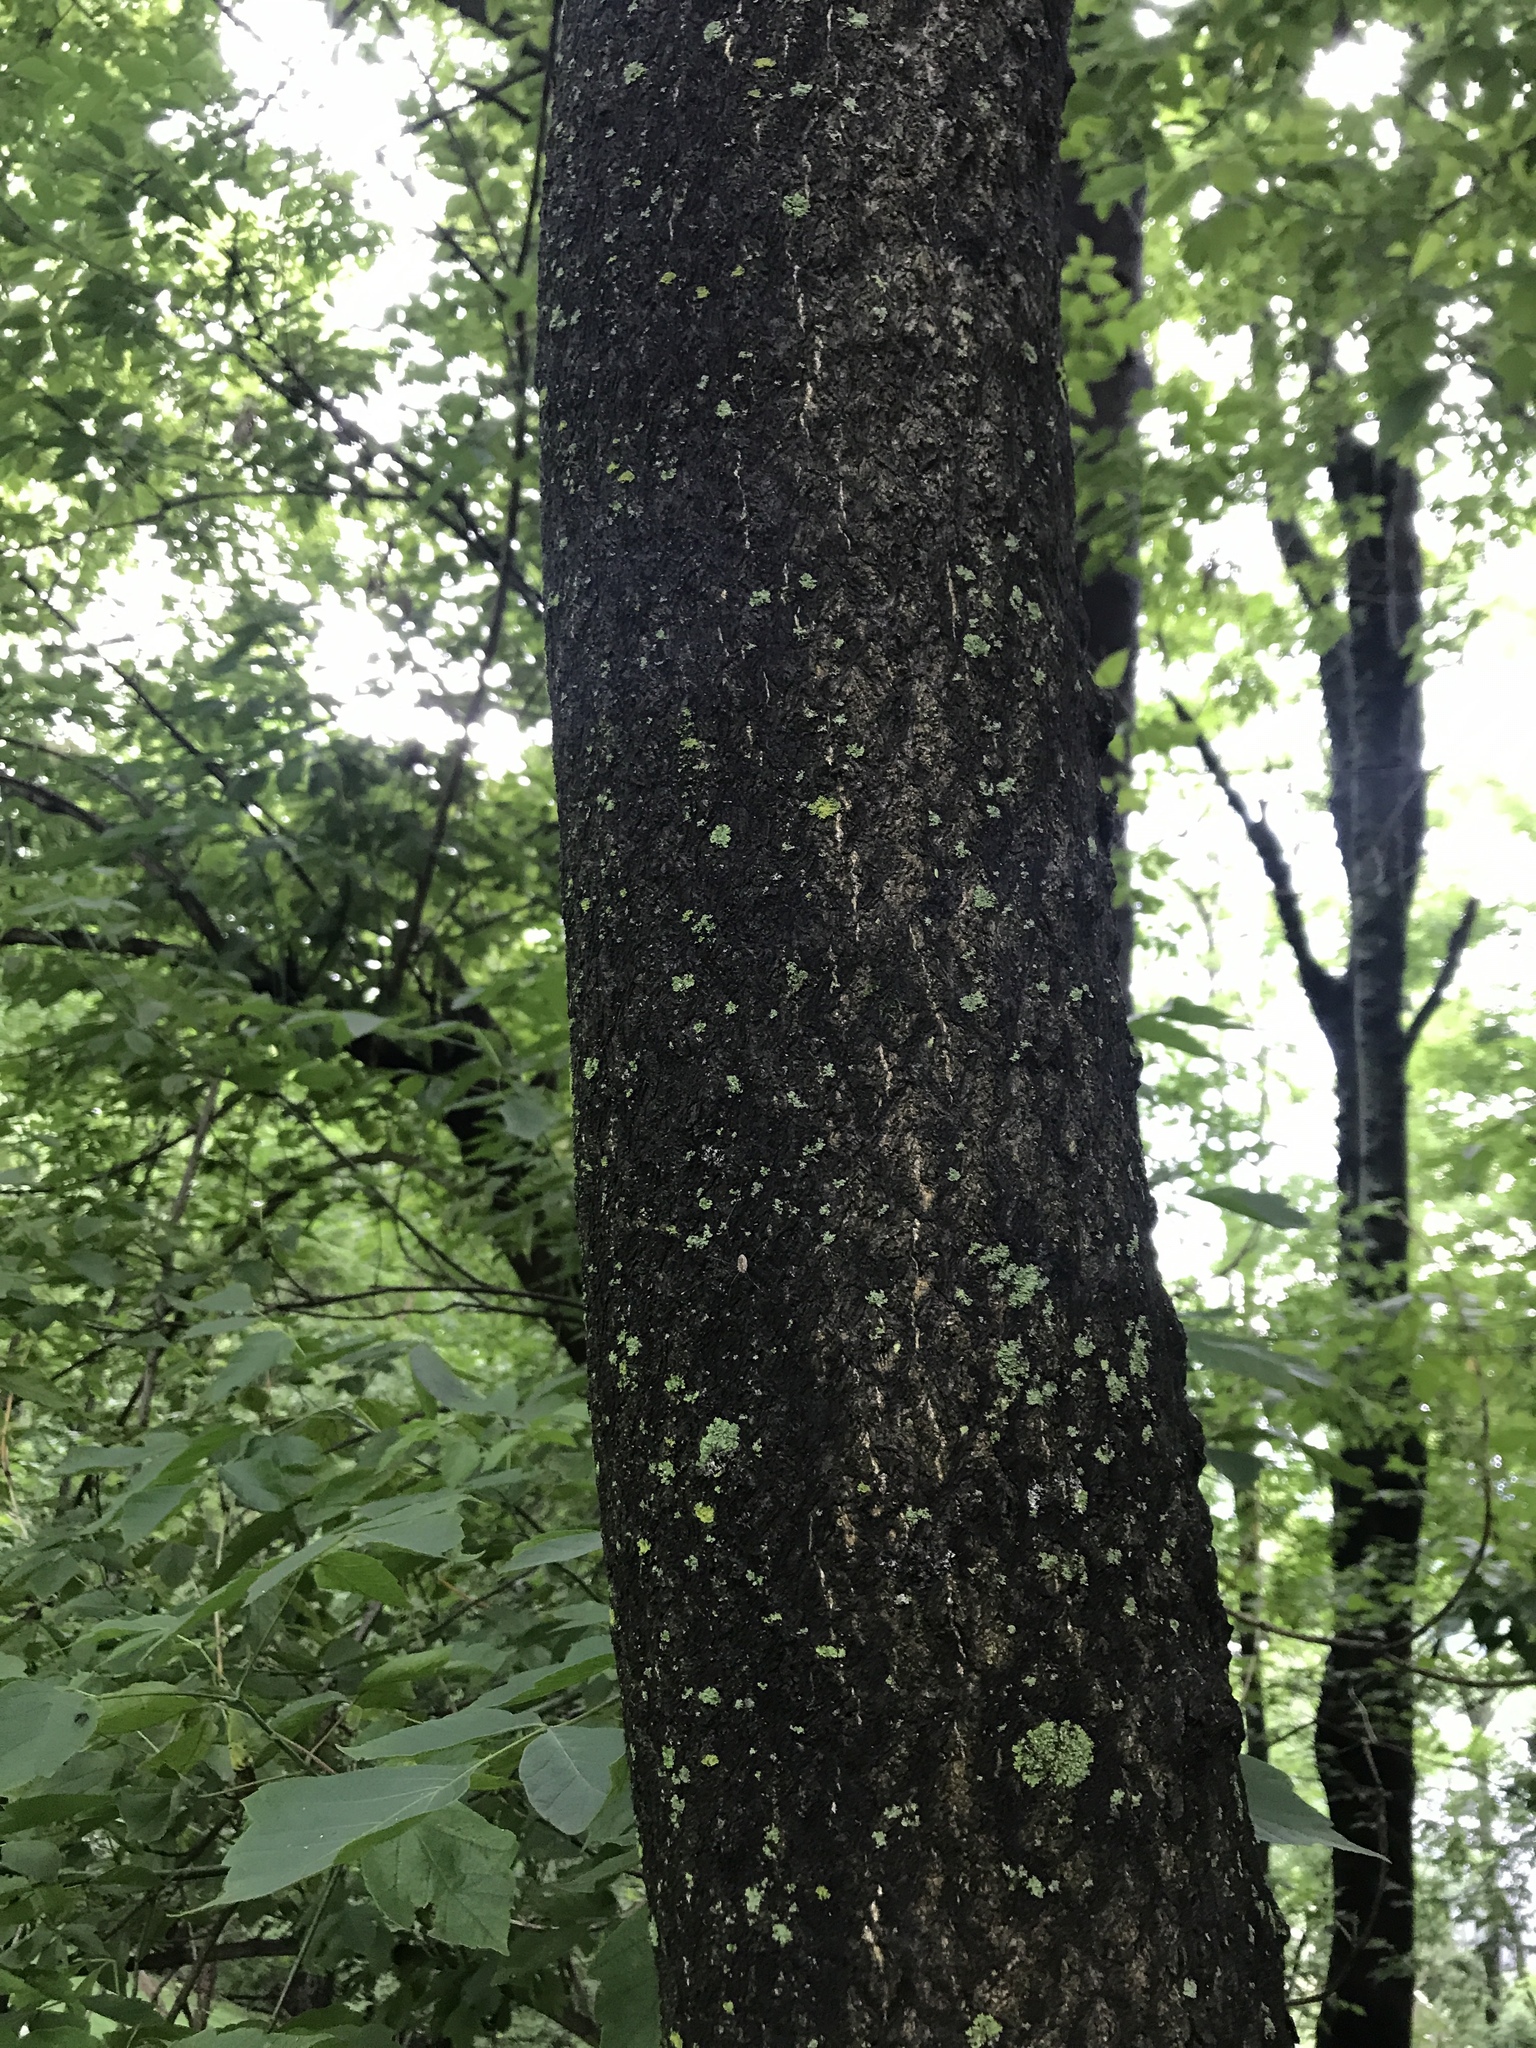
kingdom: Plantae
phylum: Tracheophyta
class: Magnoliopsida
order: Sapindales
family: Simaroubaceae
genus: Ailanthus
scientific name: Ailanthus altissima
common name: Tree-of-heaven
